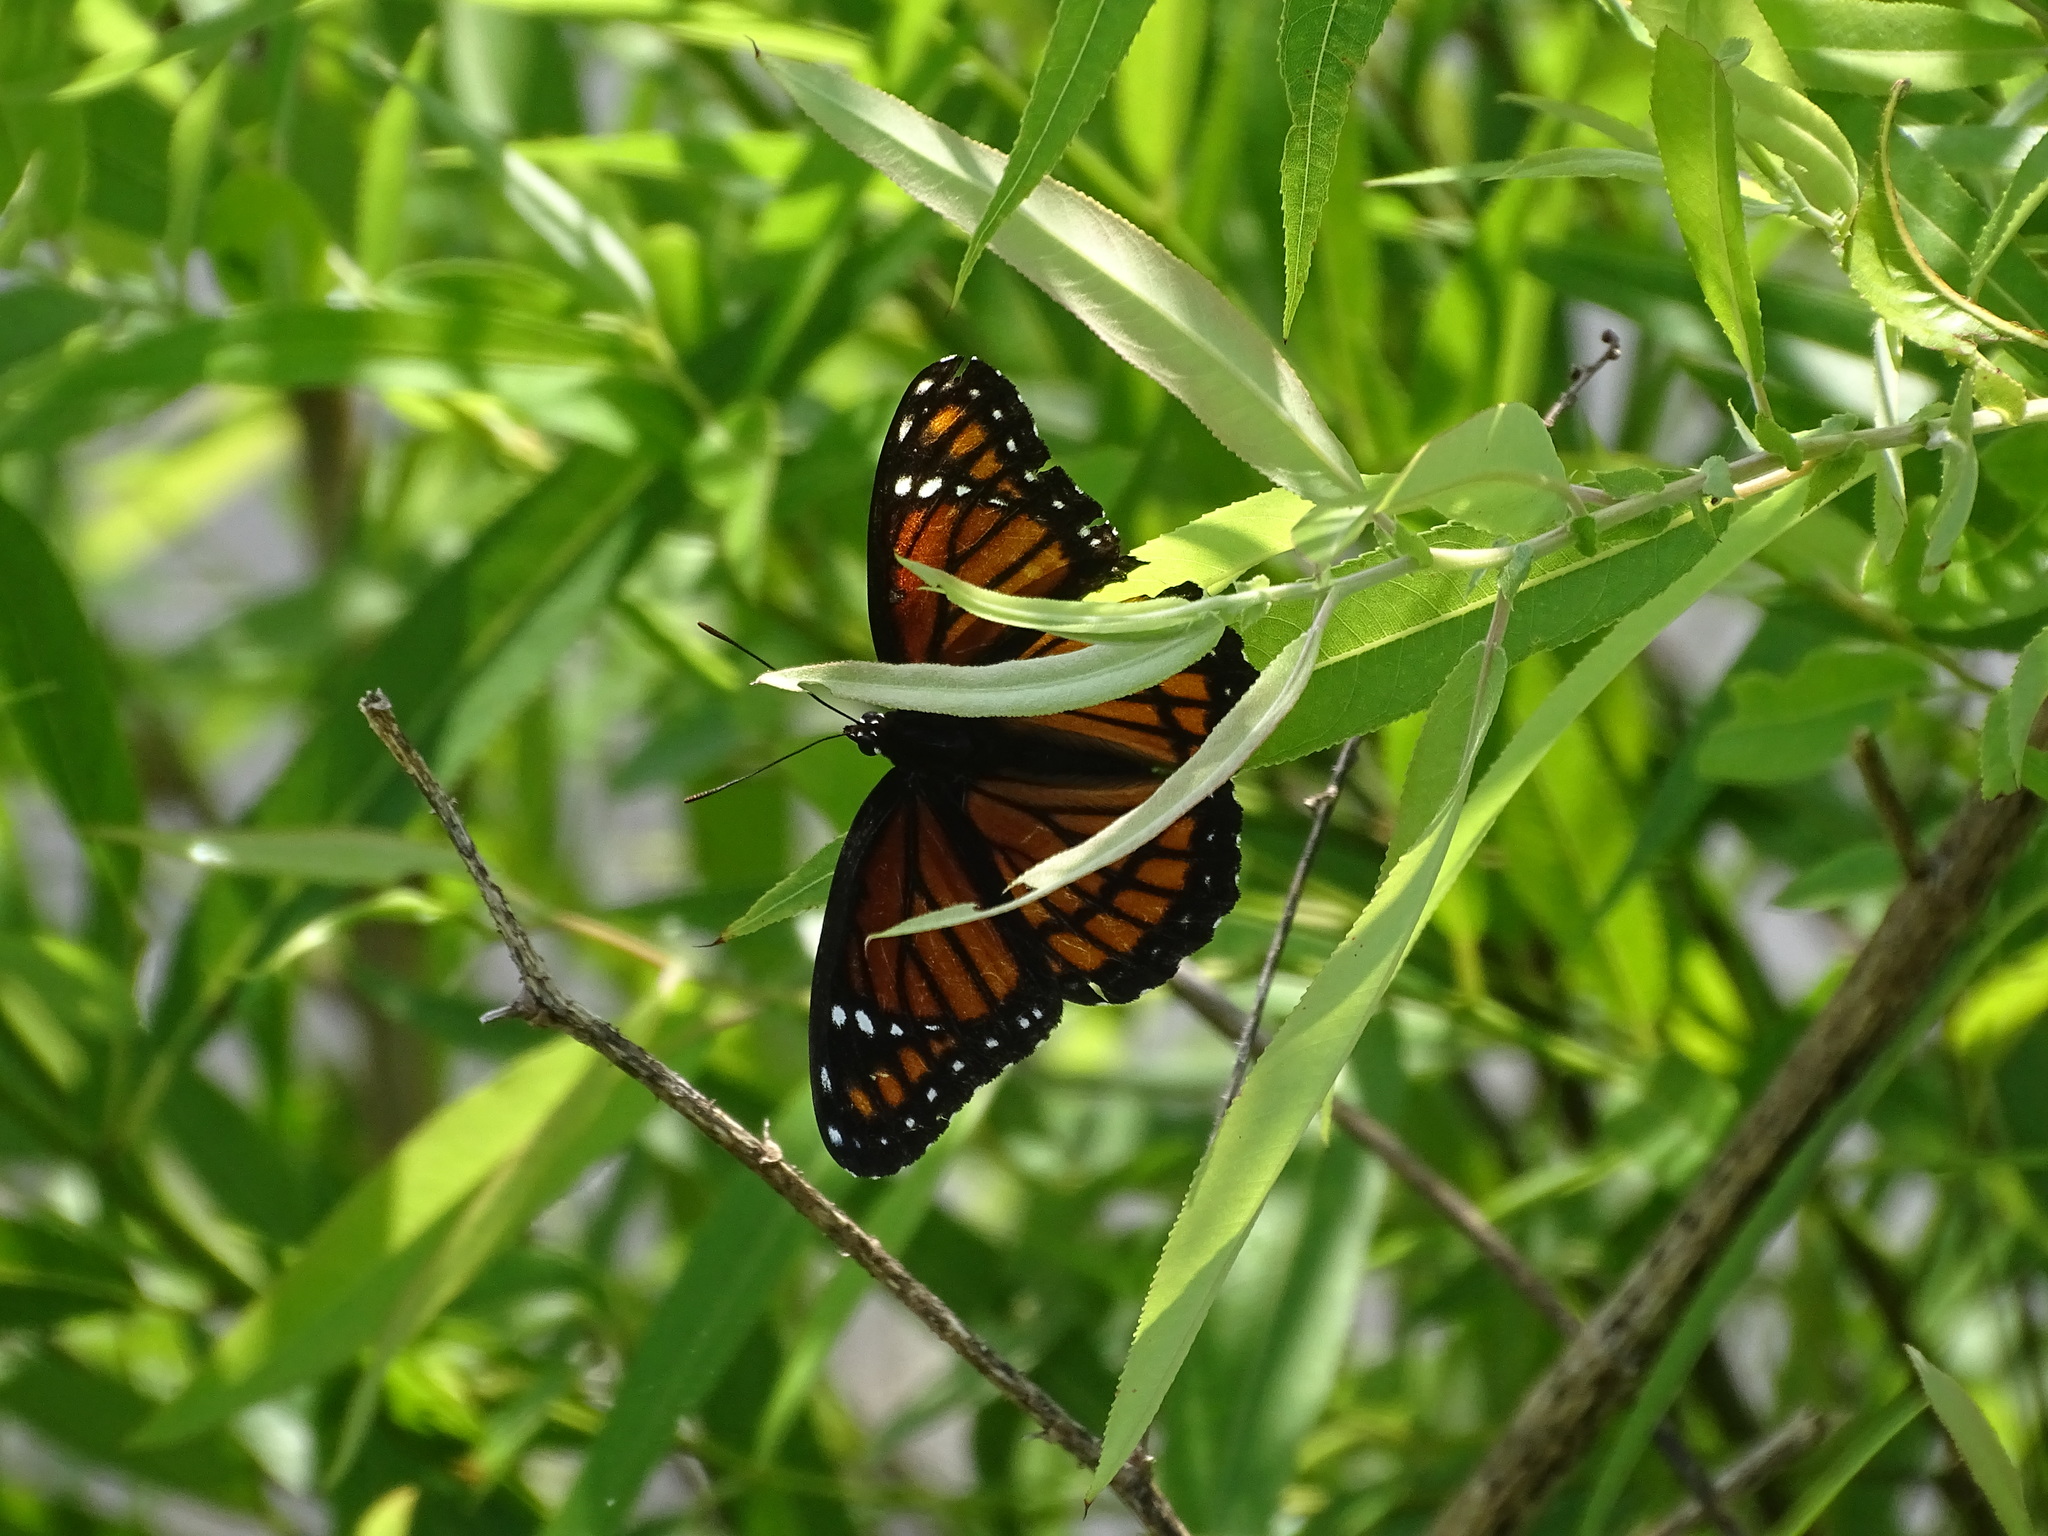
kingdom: Animalia
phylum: Arthropoda
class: Insecta
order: Lepidoptera
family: Nymphalidae
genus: Limenitis
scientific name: Limenitis archippus
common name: Viceroy
